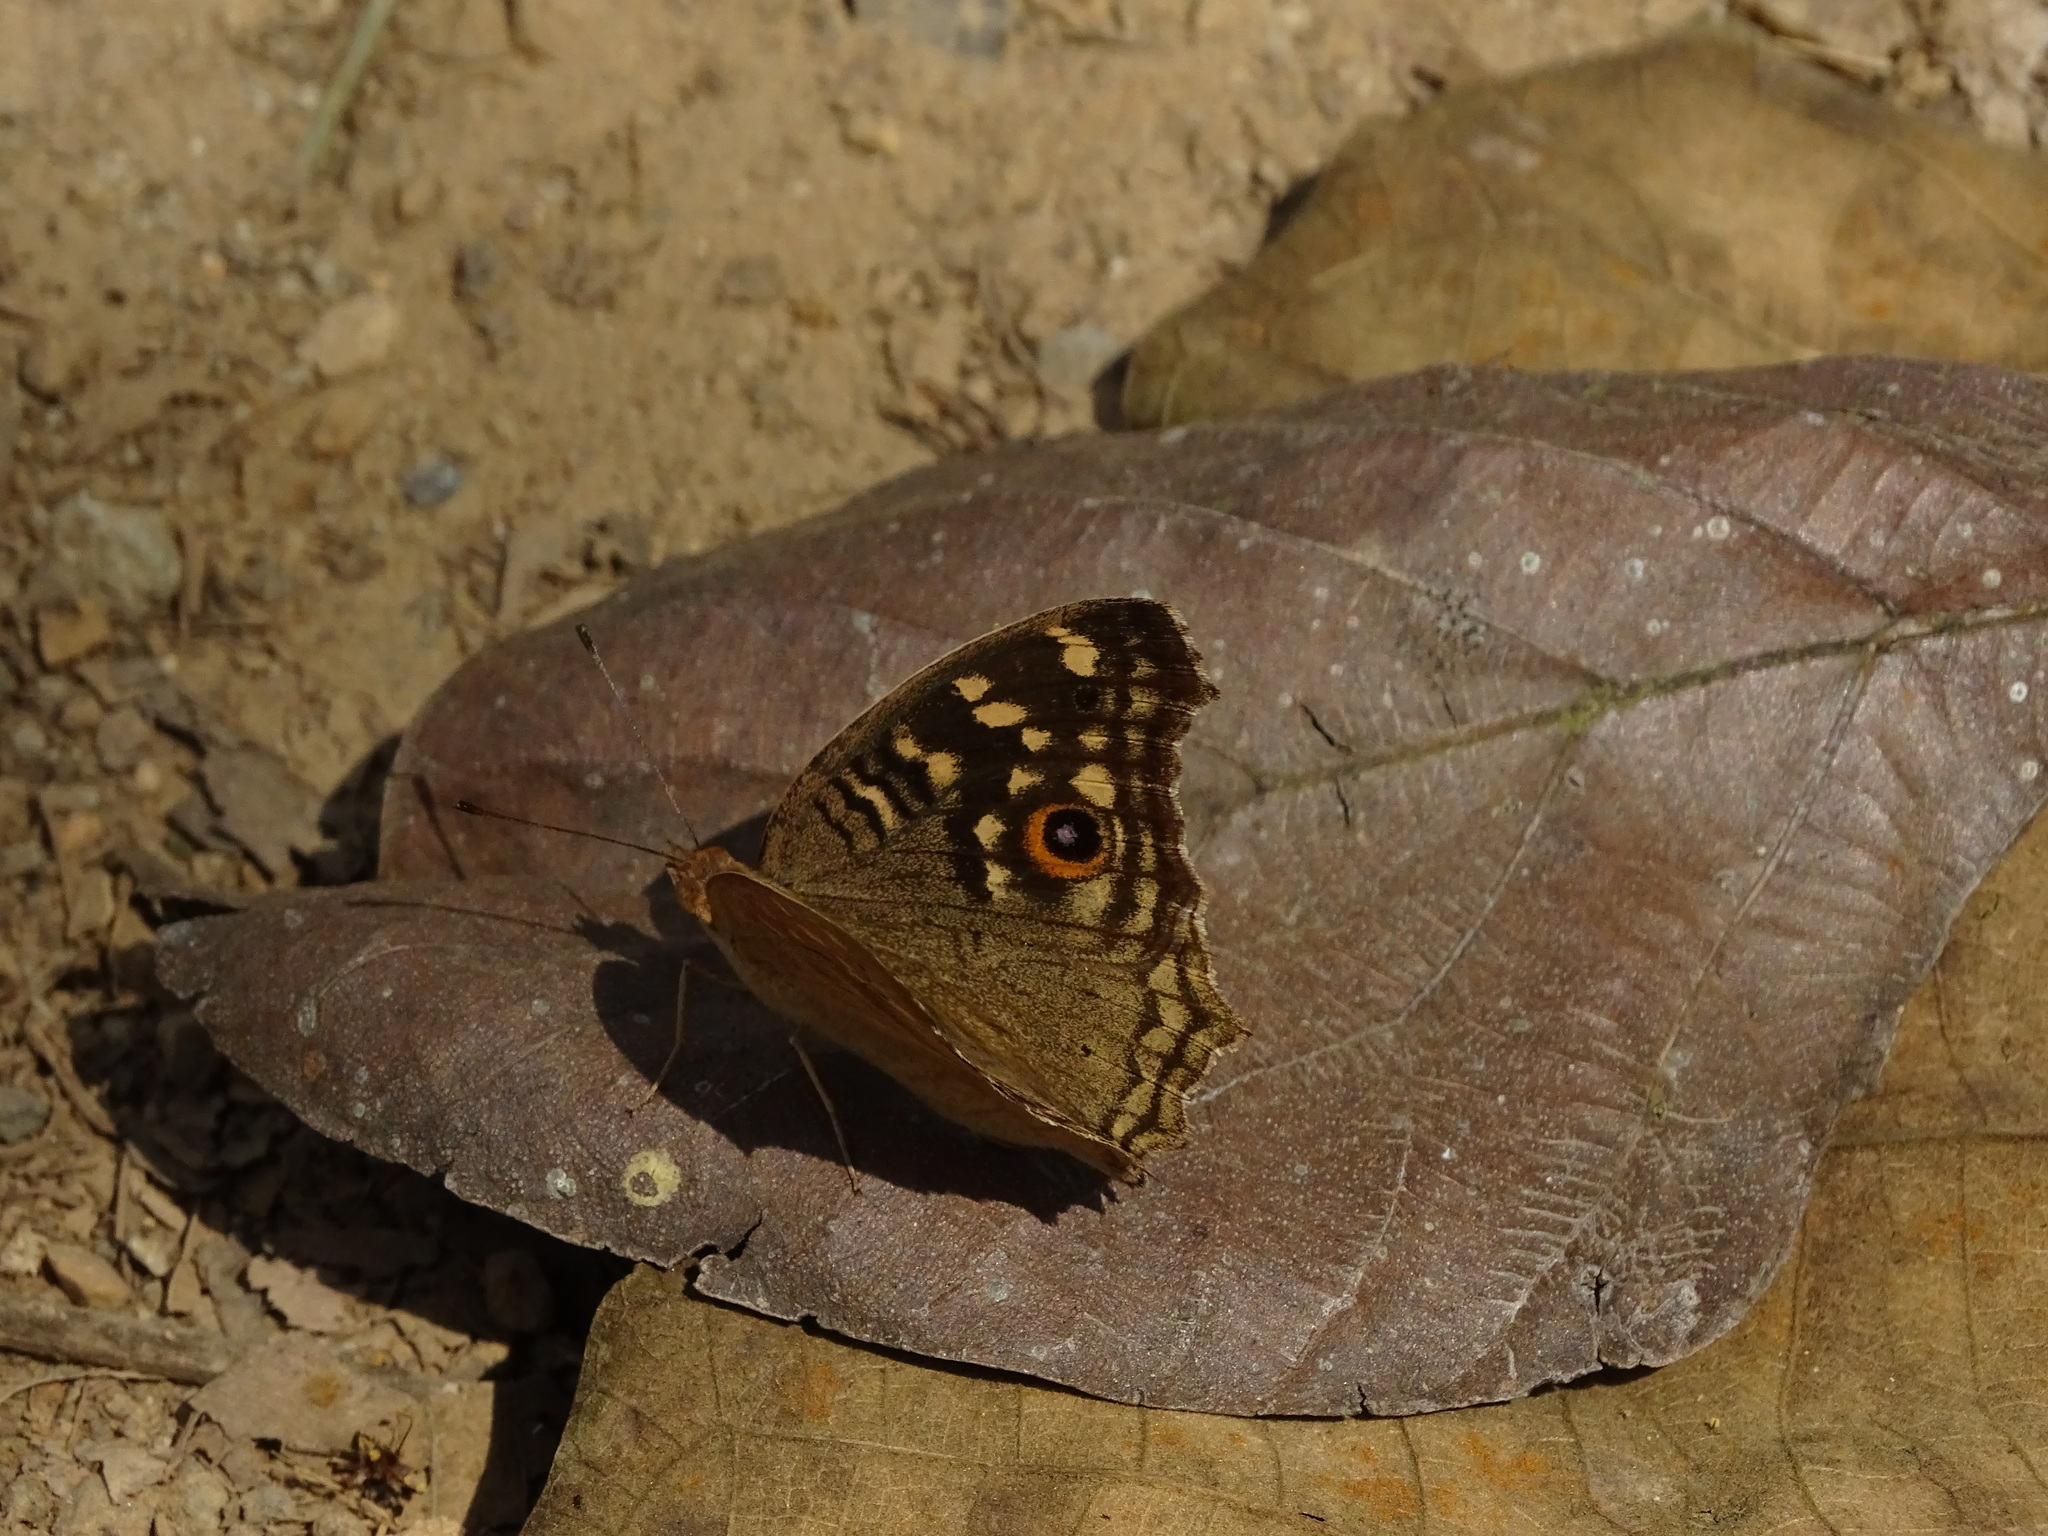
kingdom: Animalia
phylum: Arthropoda
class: Insecta
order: Lepidoptera
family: Nymphalidae
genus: Junonia
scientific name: Junonia lemonias
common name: Lemon pansy
